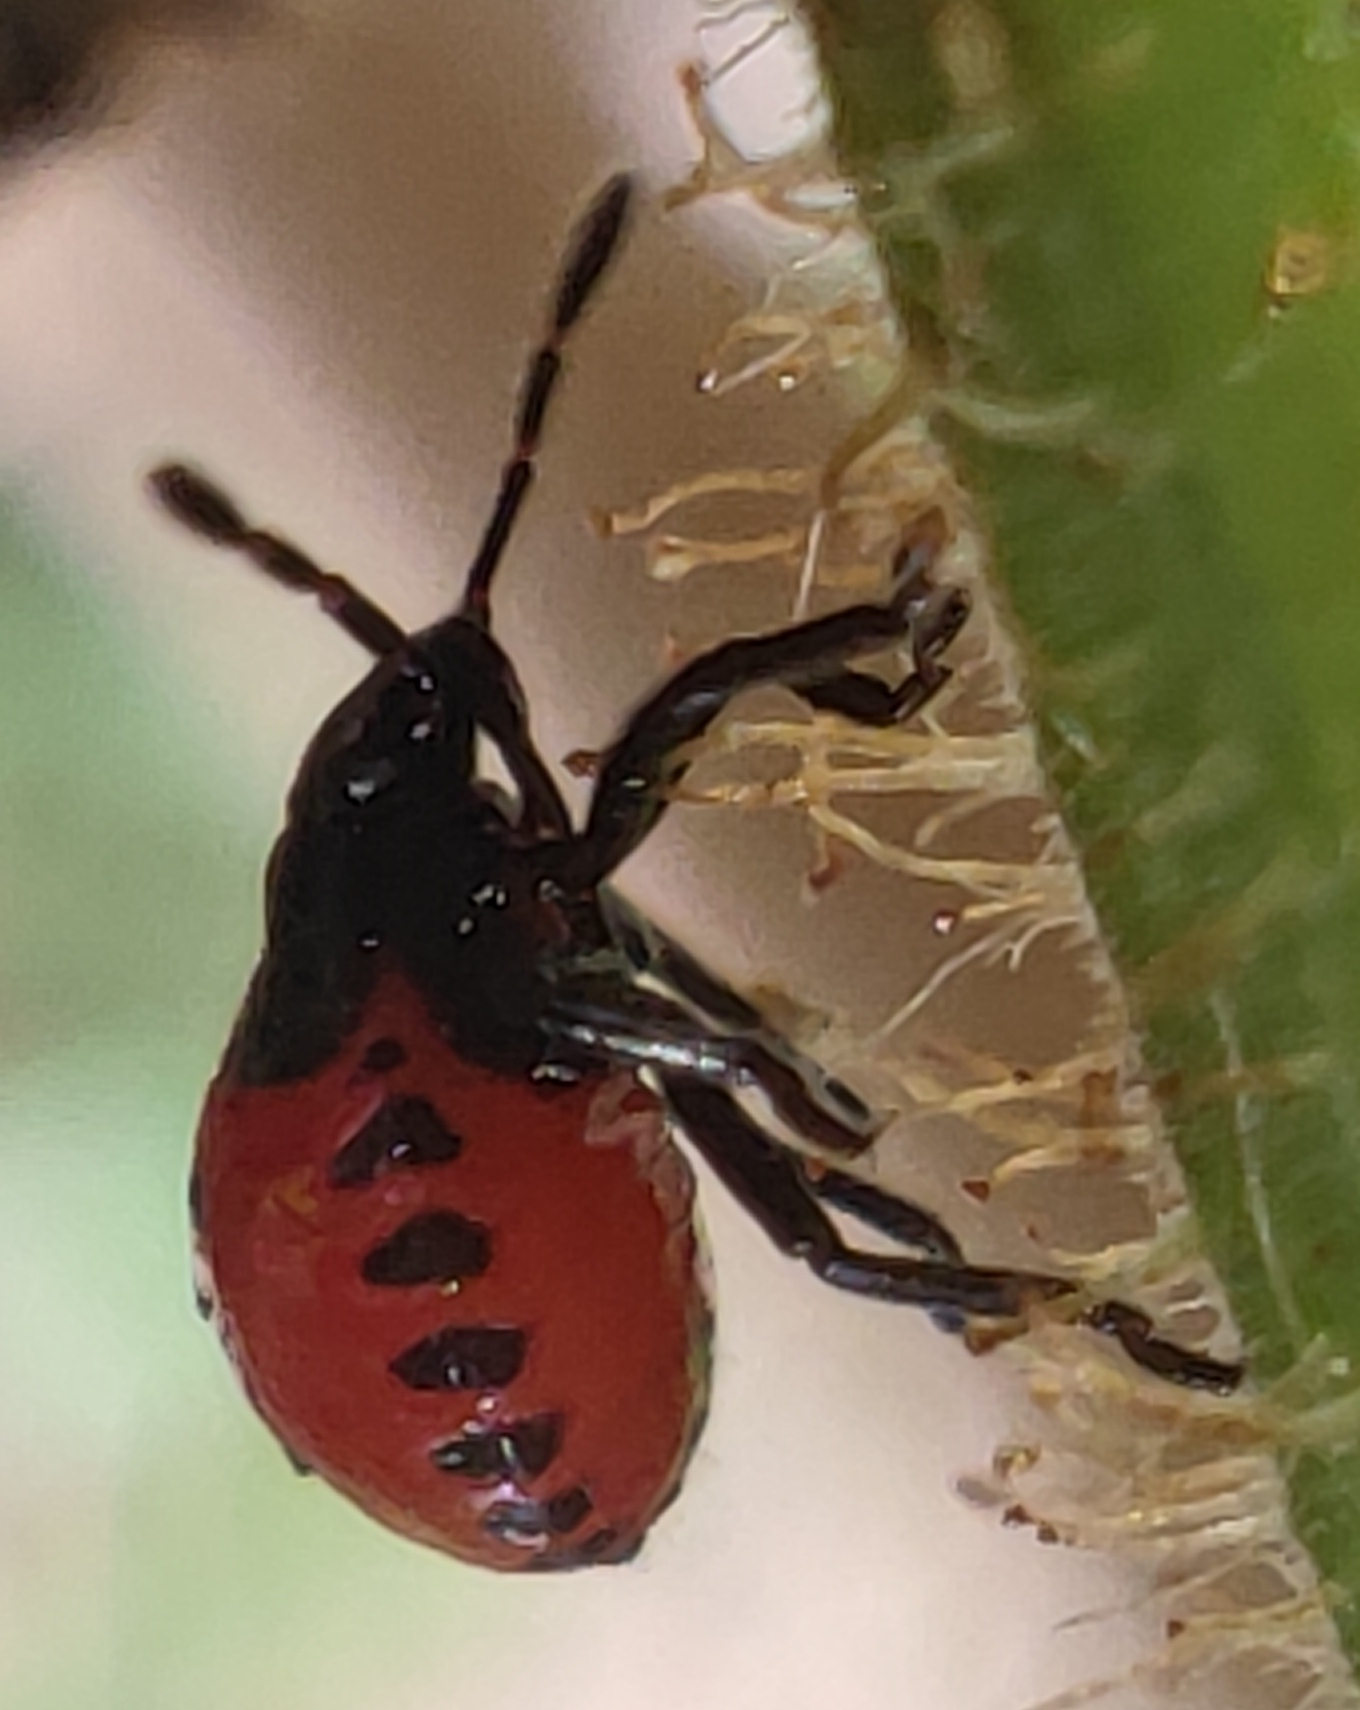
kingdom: Animalia
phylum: Arthropoda
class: Insecta
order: Hemiptera
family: Pentatomidae
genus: Zicrona
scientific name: Zicrona caerulea
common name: Blue shieldbug
